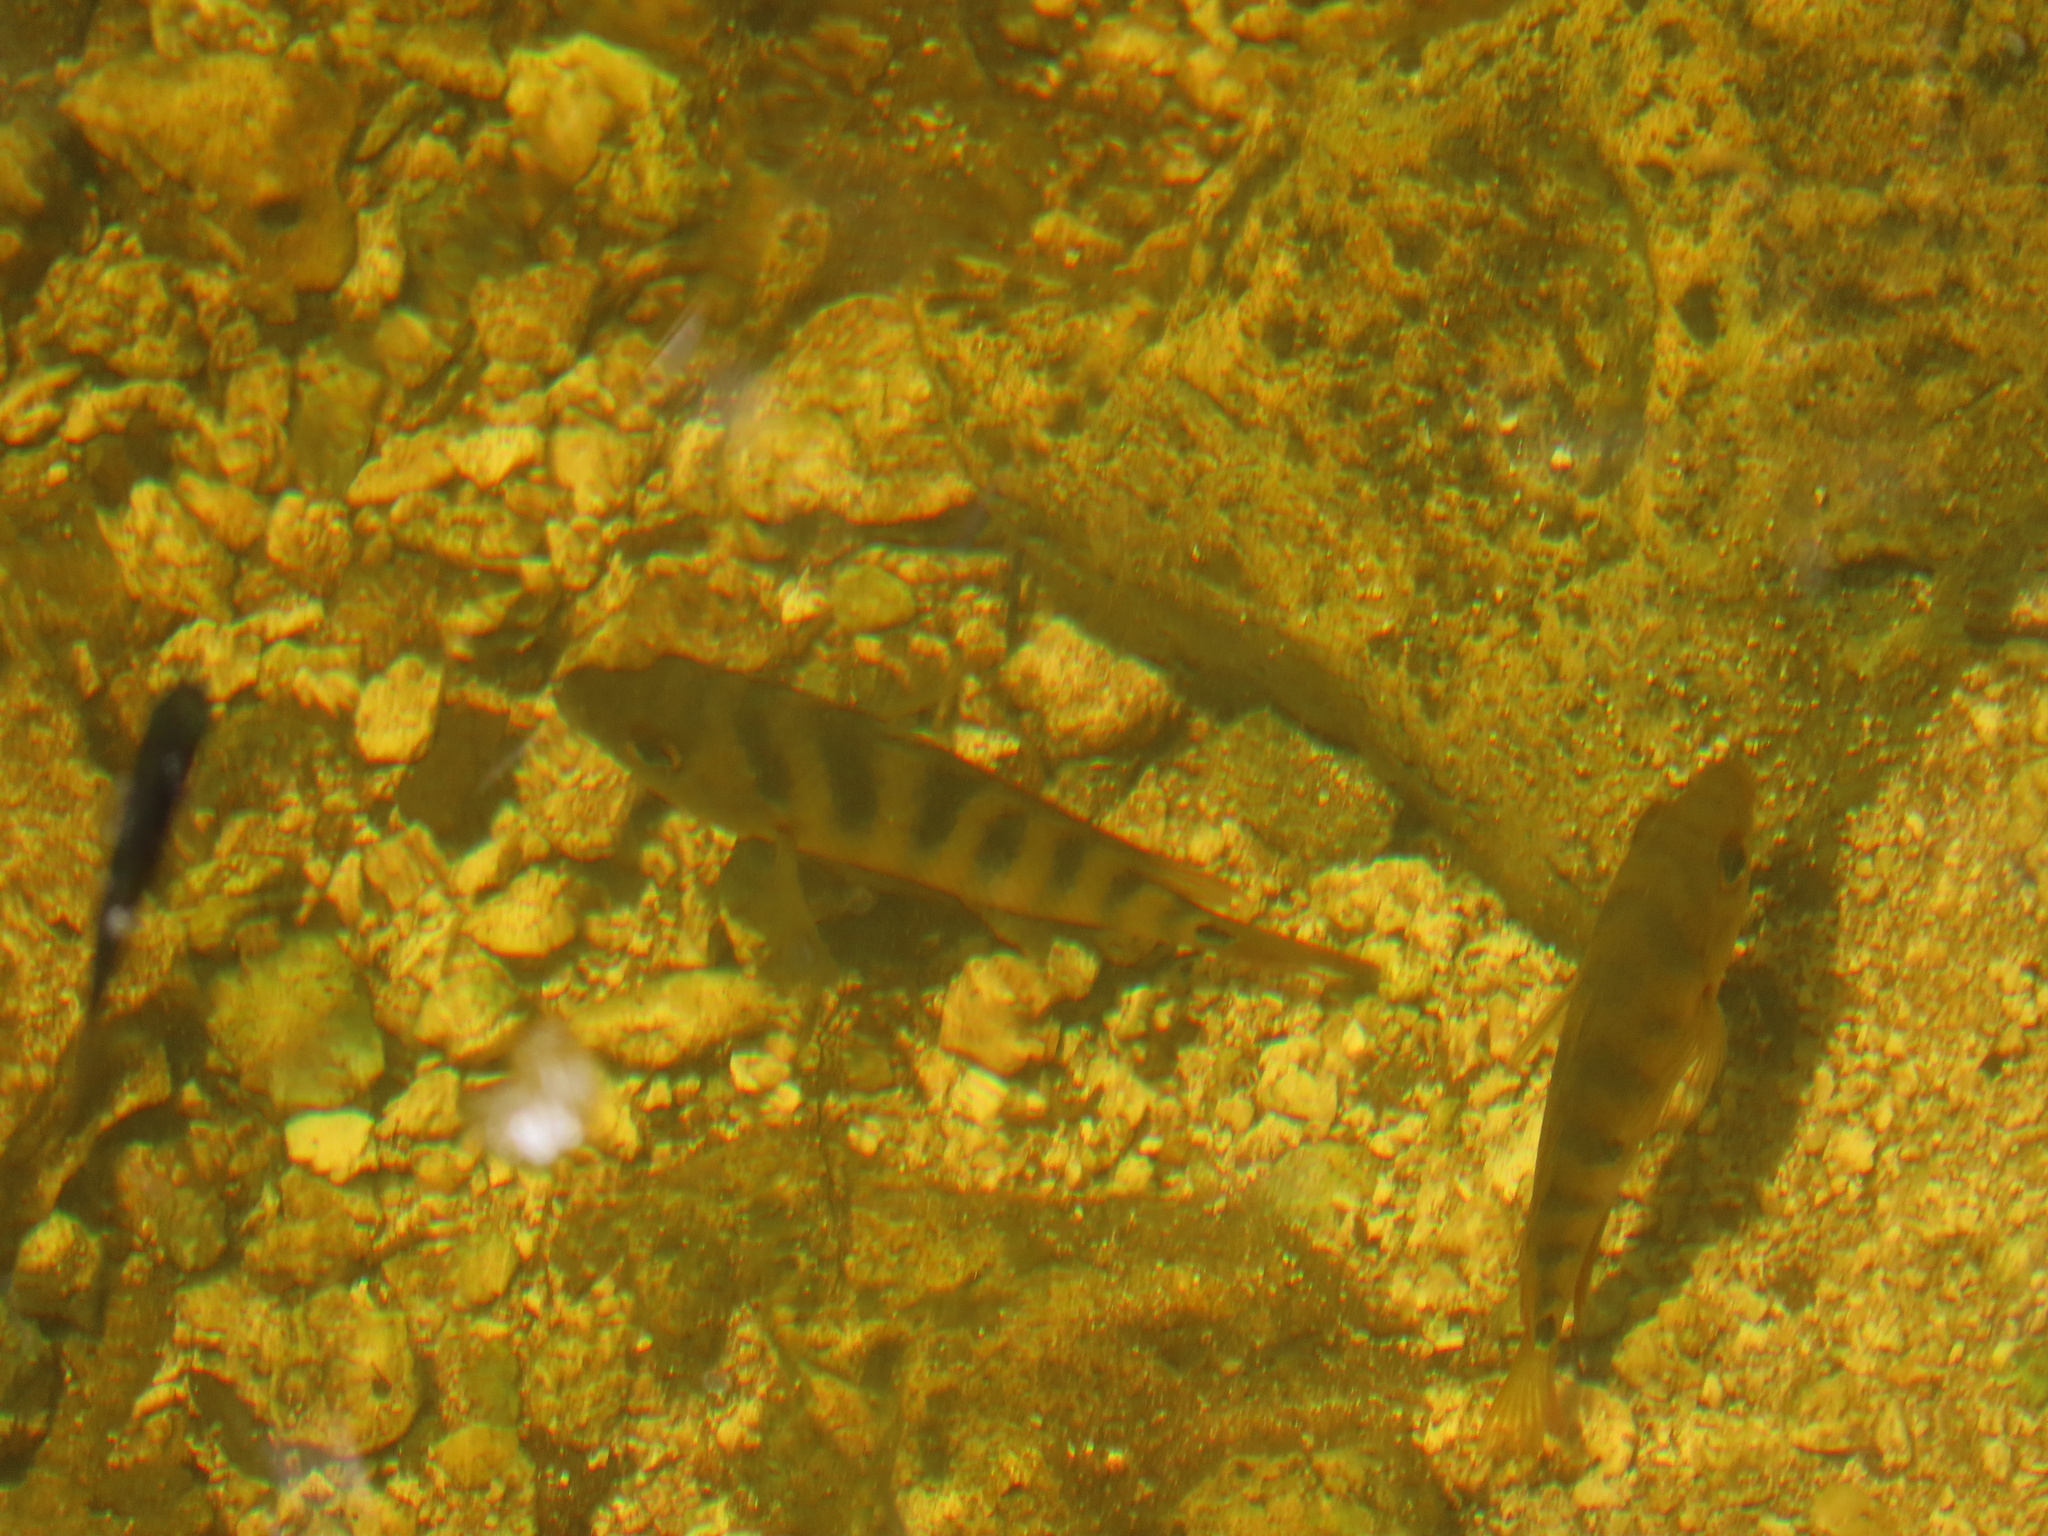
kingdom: Animalia
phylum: Chordata
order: Perciformes
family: Cichlidae
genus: Mayaheros
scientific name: Mayaheros urophthalmus
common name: Mayan cichlid
